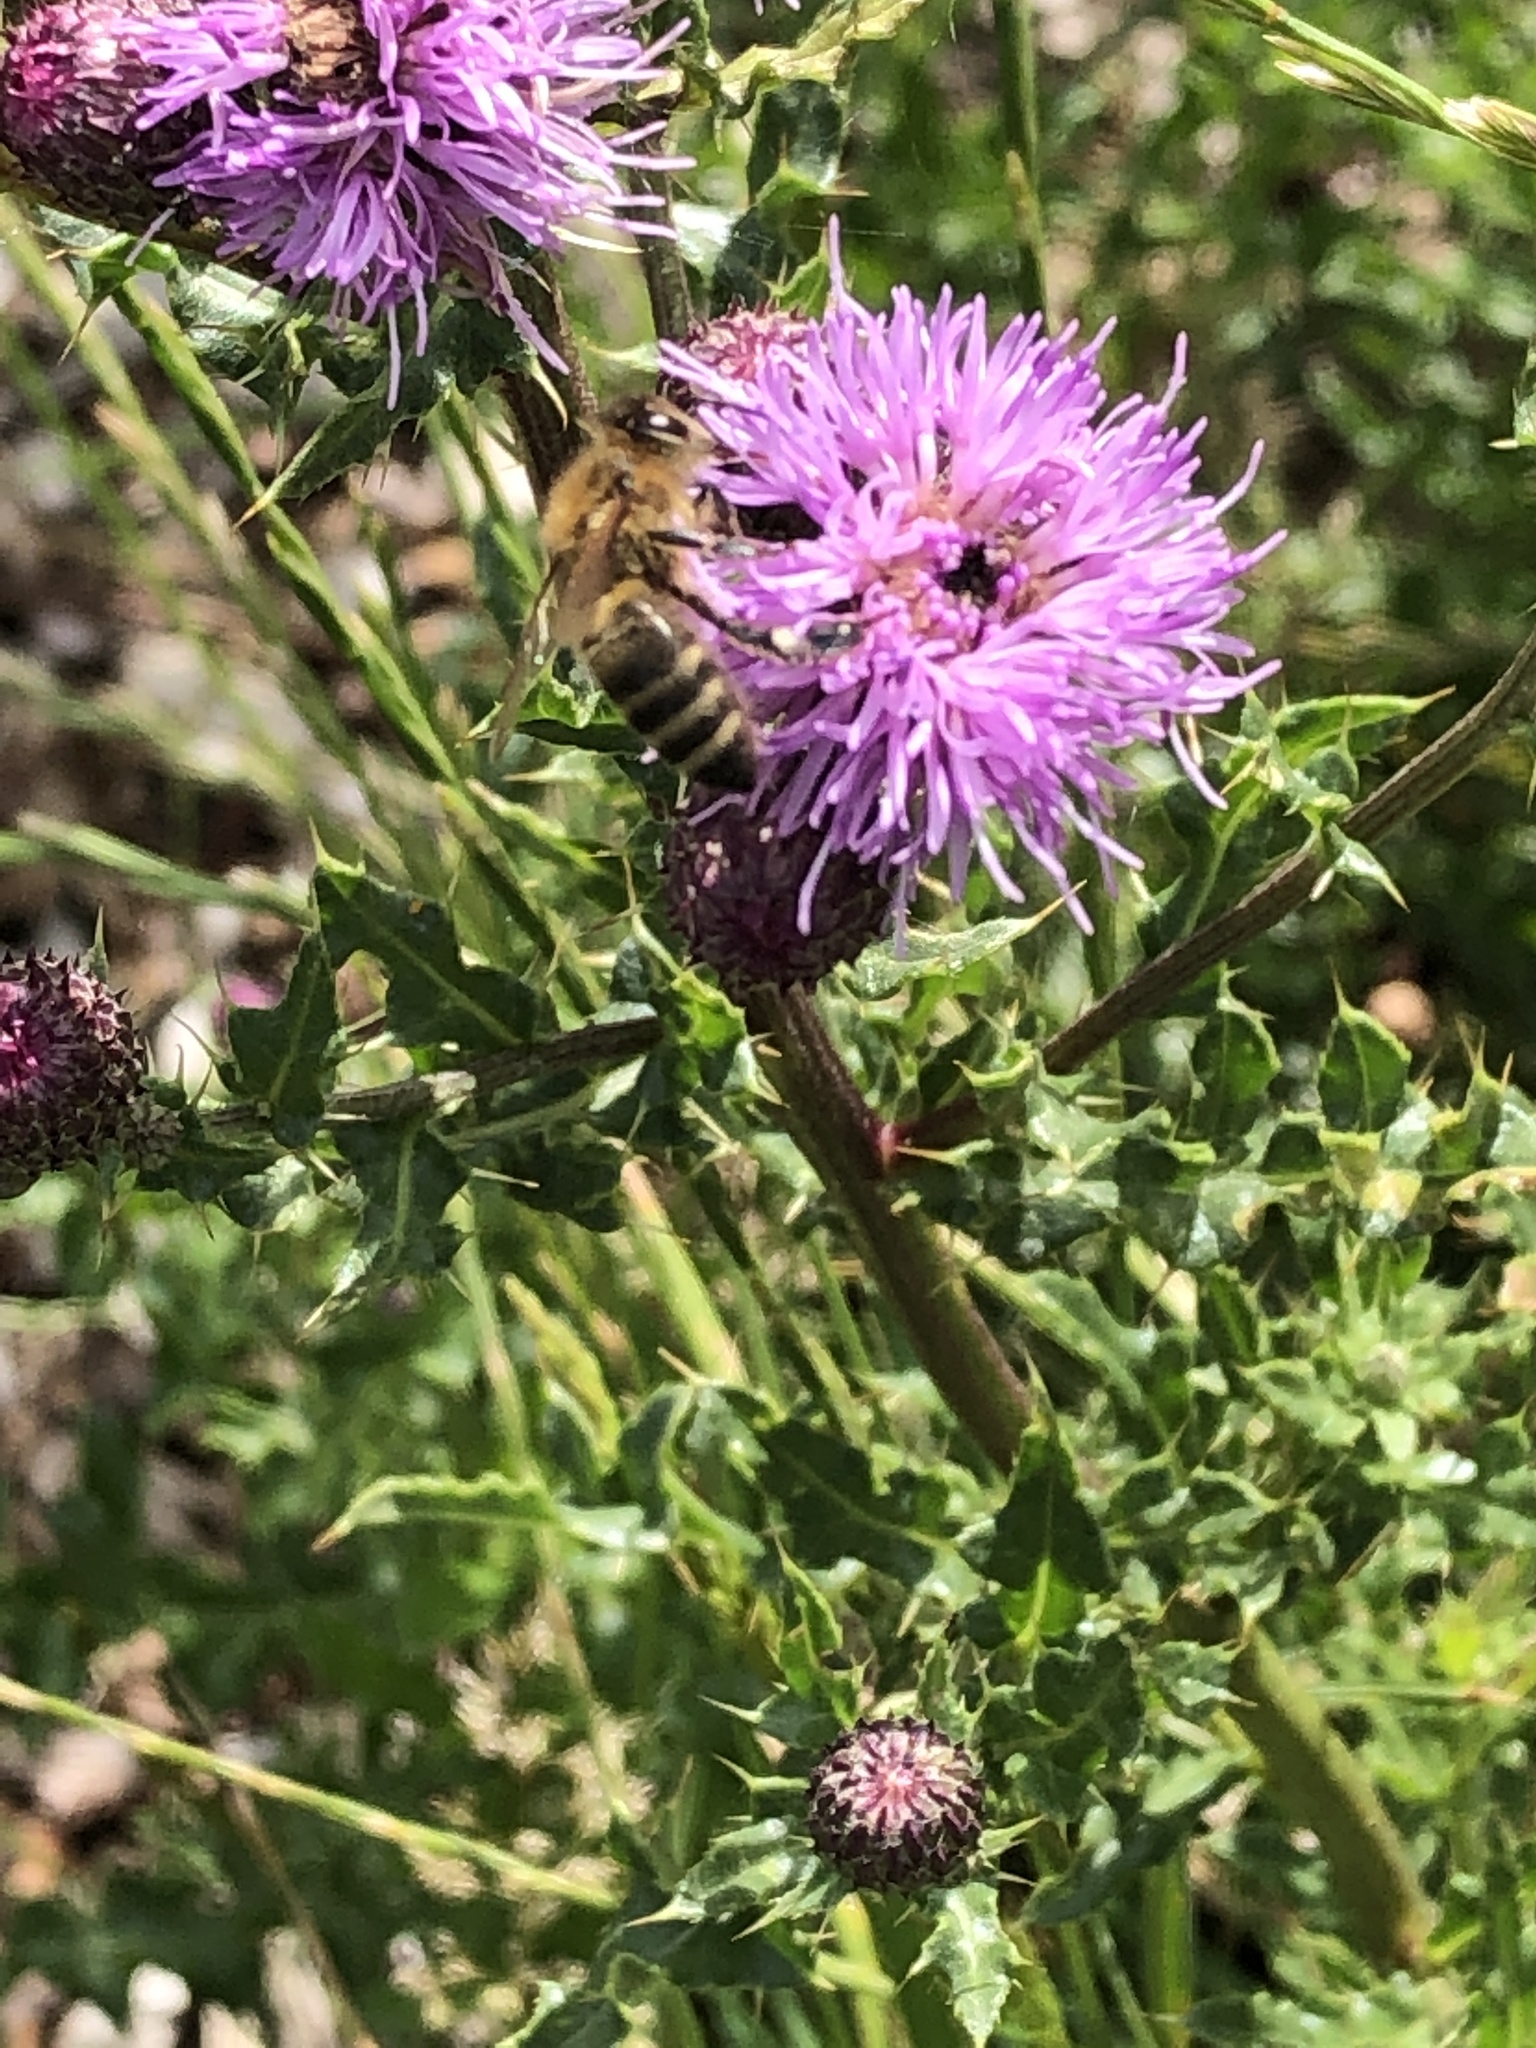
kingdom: Animalia
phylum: Arthropoda
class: Insecta
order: Hymenoptera
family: Apidae
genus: Apis
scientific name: Apis mellifera
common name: Honey bee
